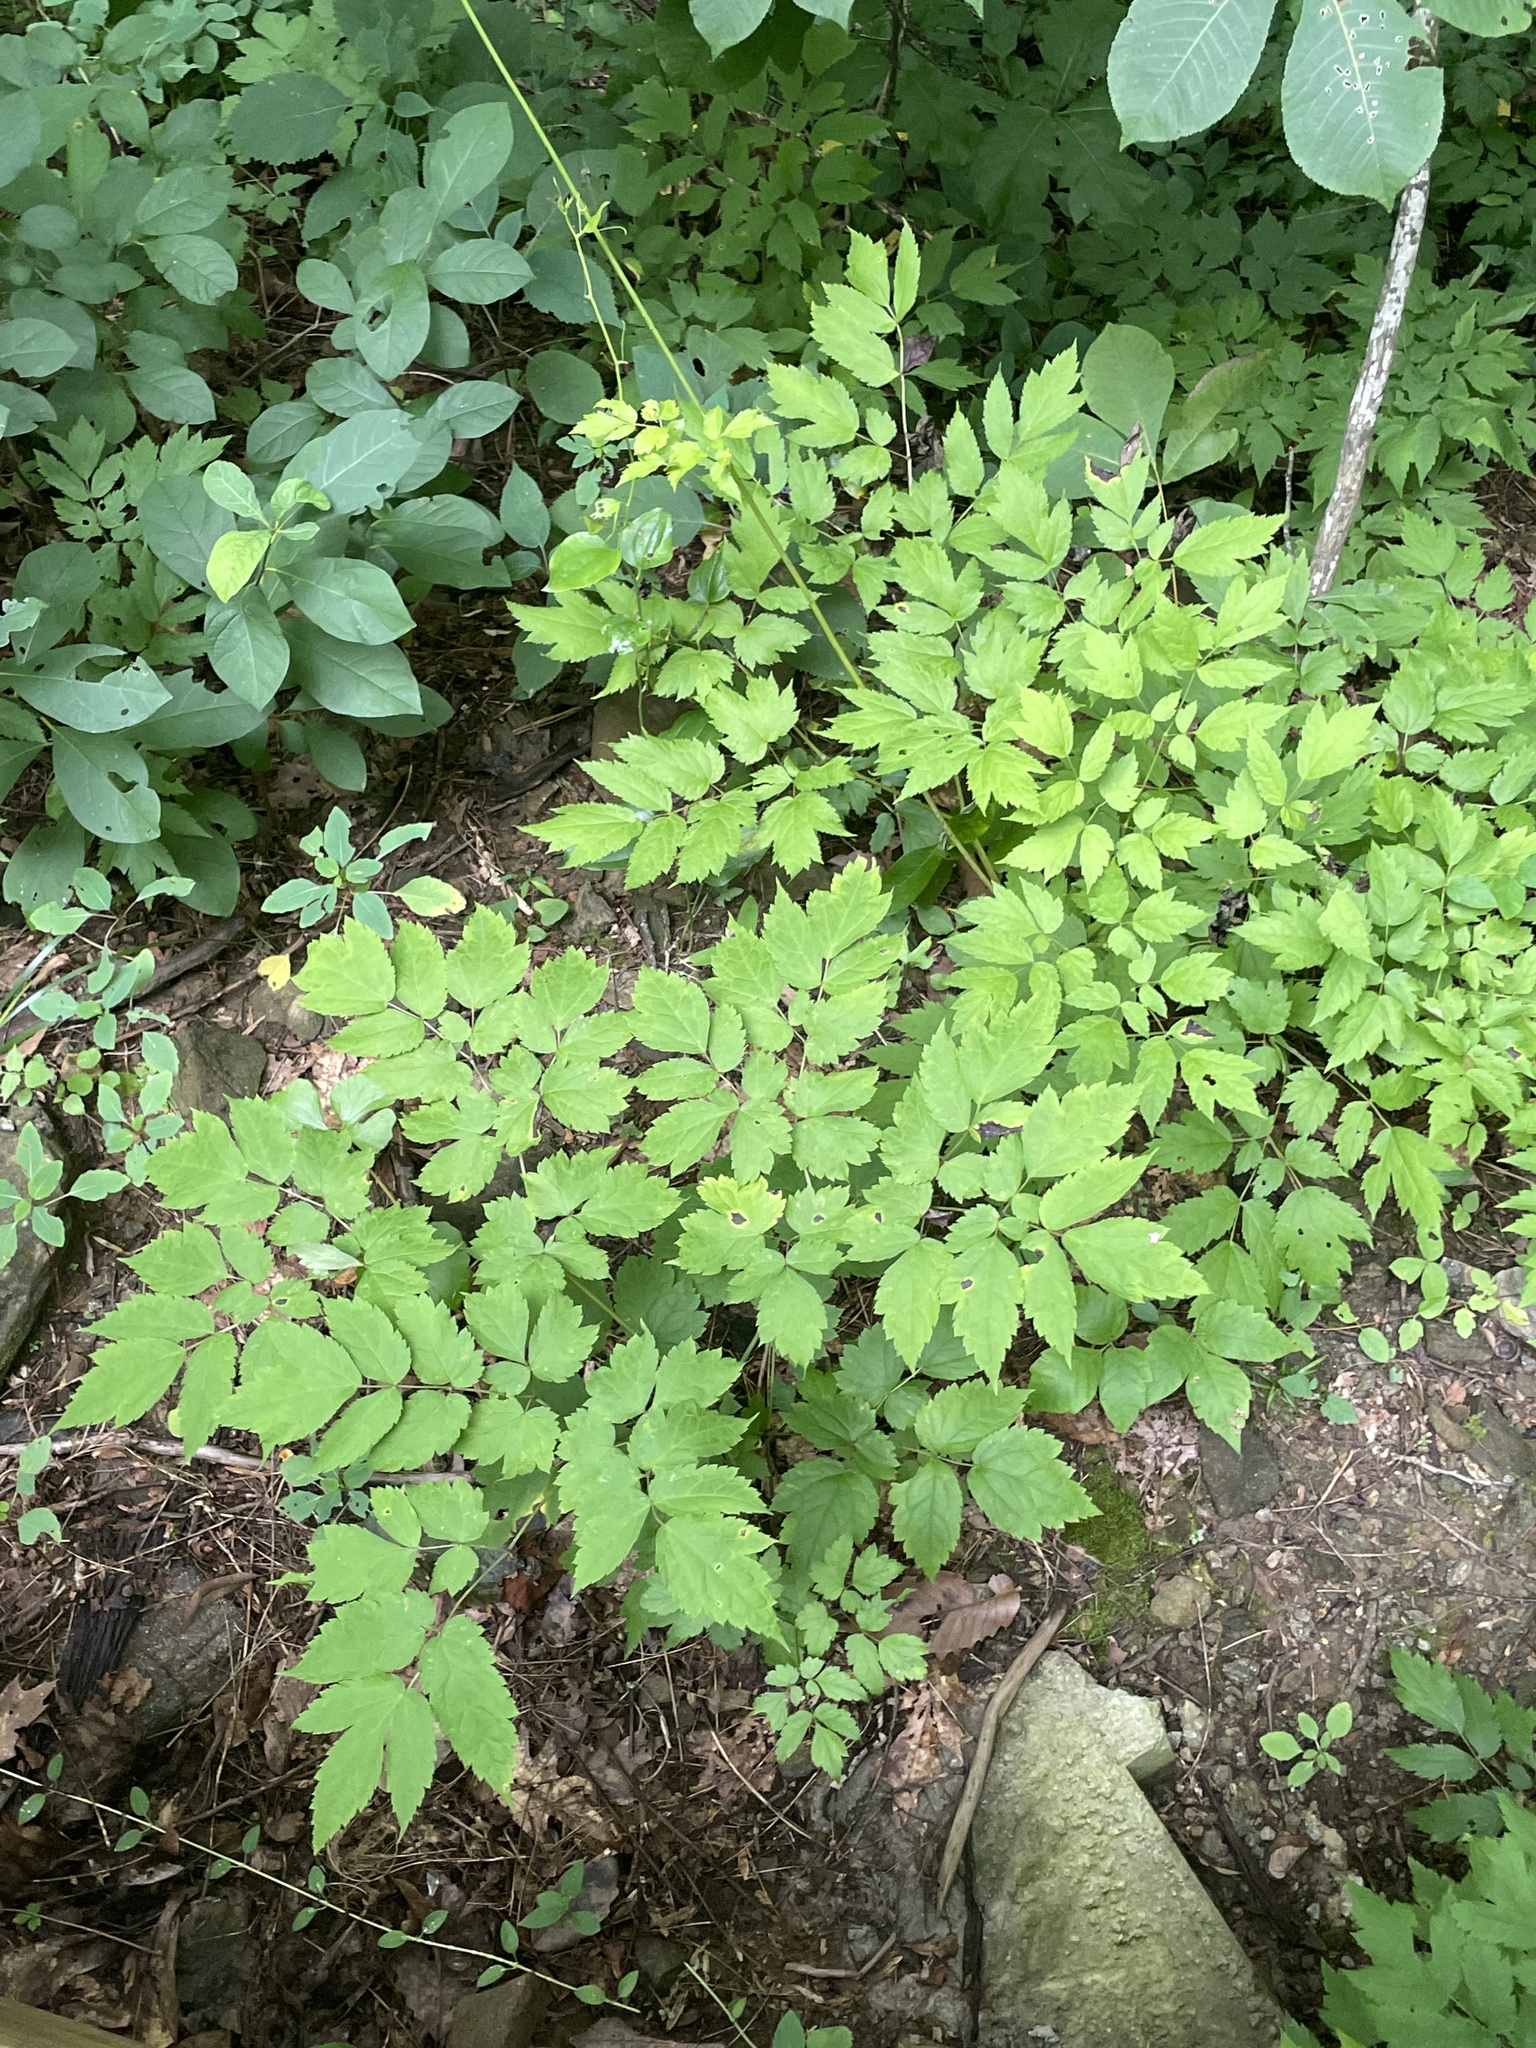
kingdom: Plantae
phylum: Tracheophyta
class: Magnoliopsida
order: Ranunculales
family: Ranunculaceae
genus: Actaea
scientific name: Actaea racemosa
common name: Black cohosh
